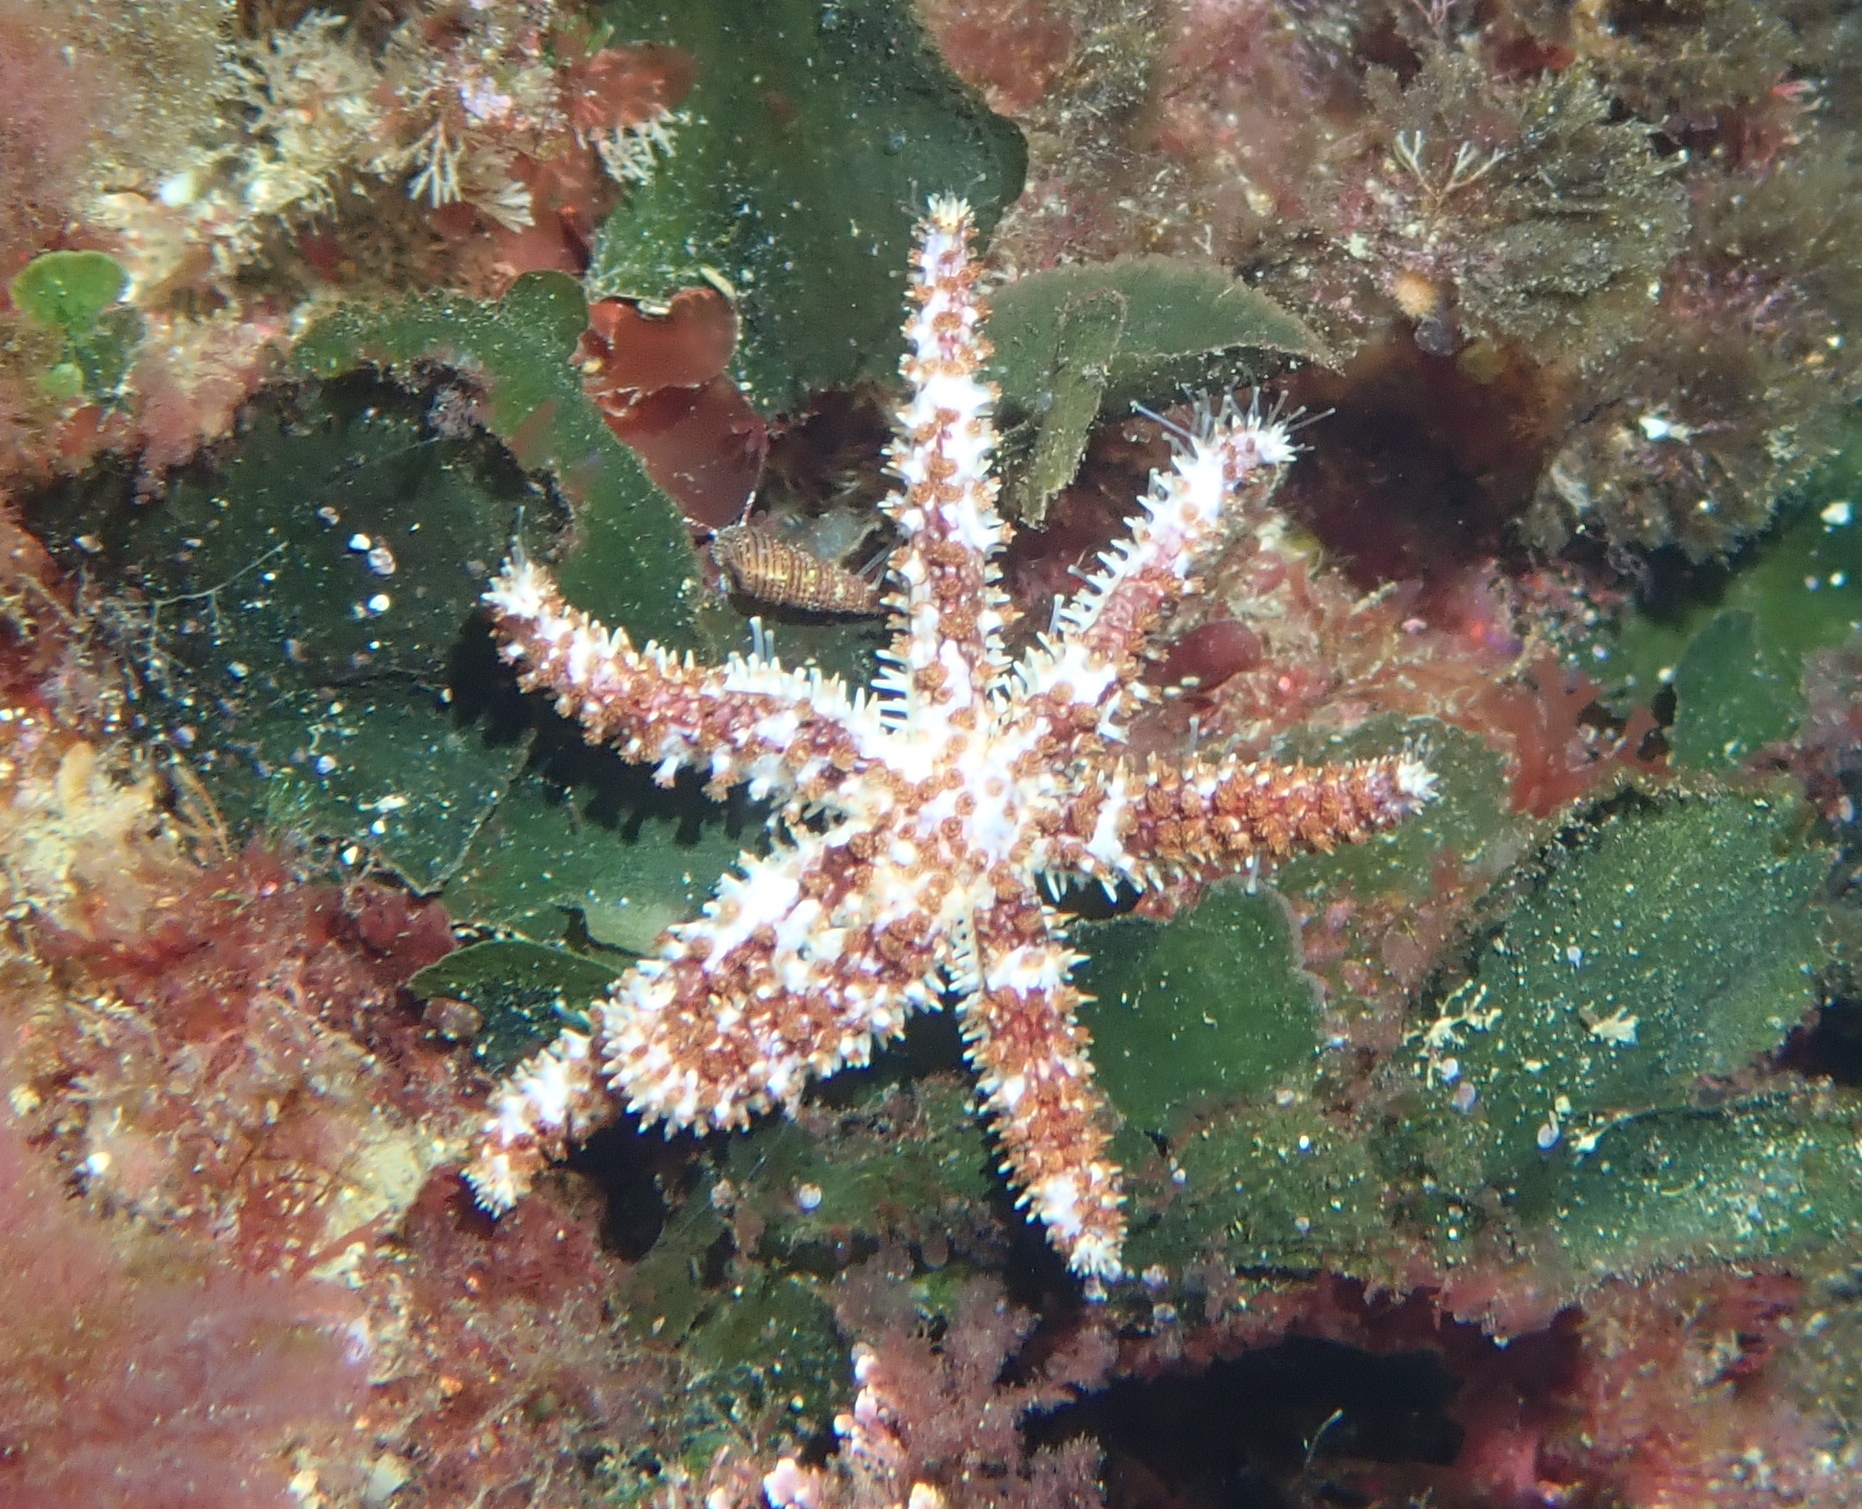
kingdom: Animalia
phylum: Echinodermata
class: Asteroidea
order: Forcipulatida
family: Asteriidae
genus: Coscinasterias
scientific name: Coscinasterias tenuispina
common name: Blue spiny starfish
